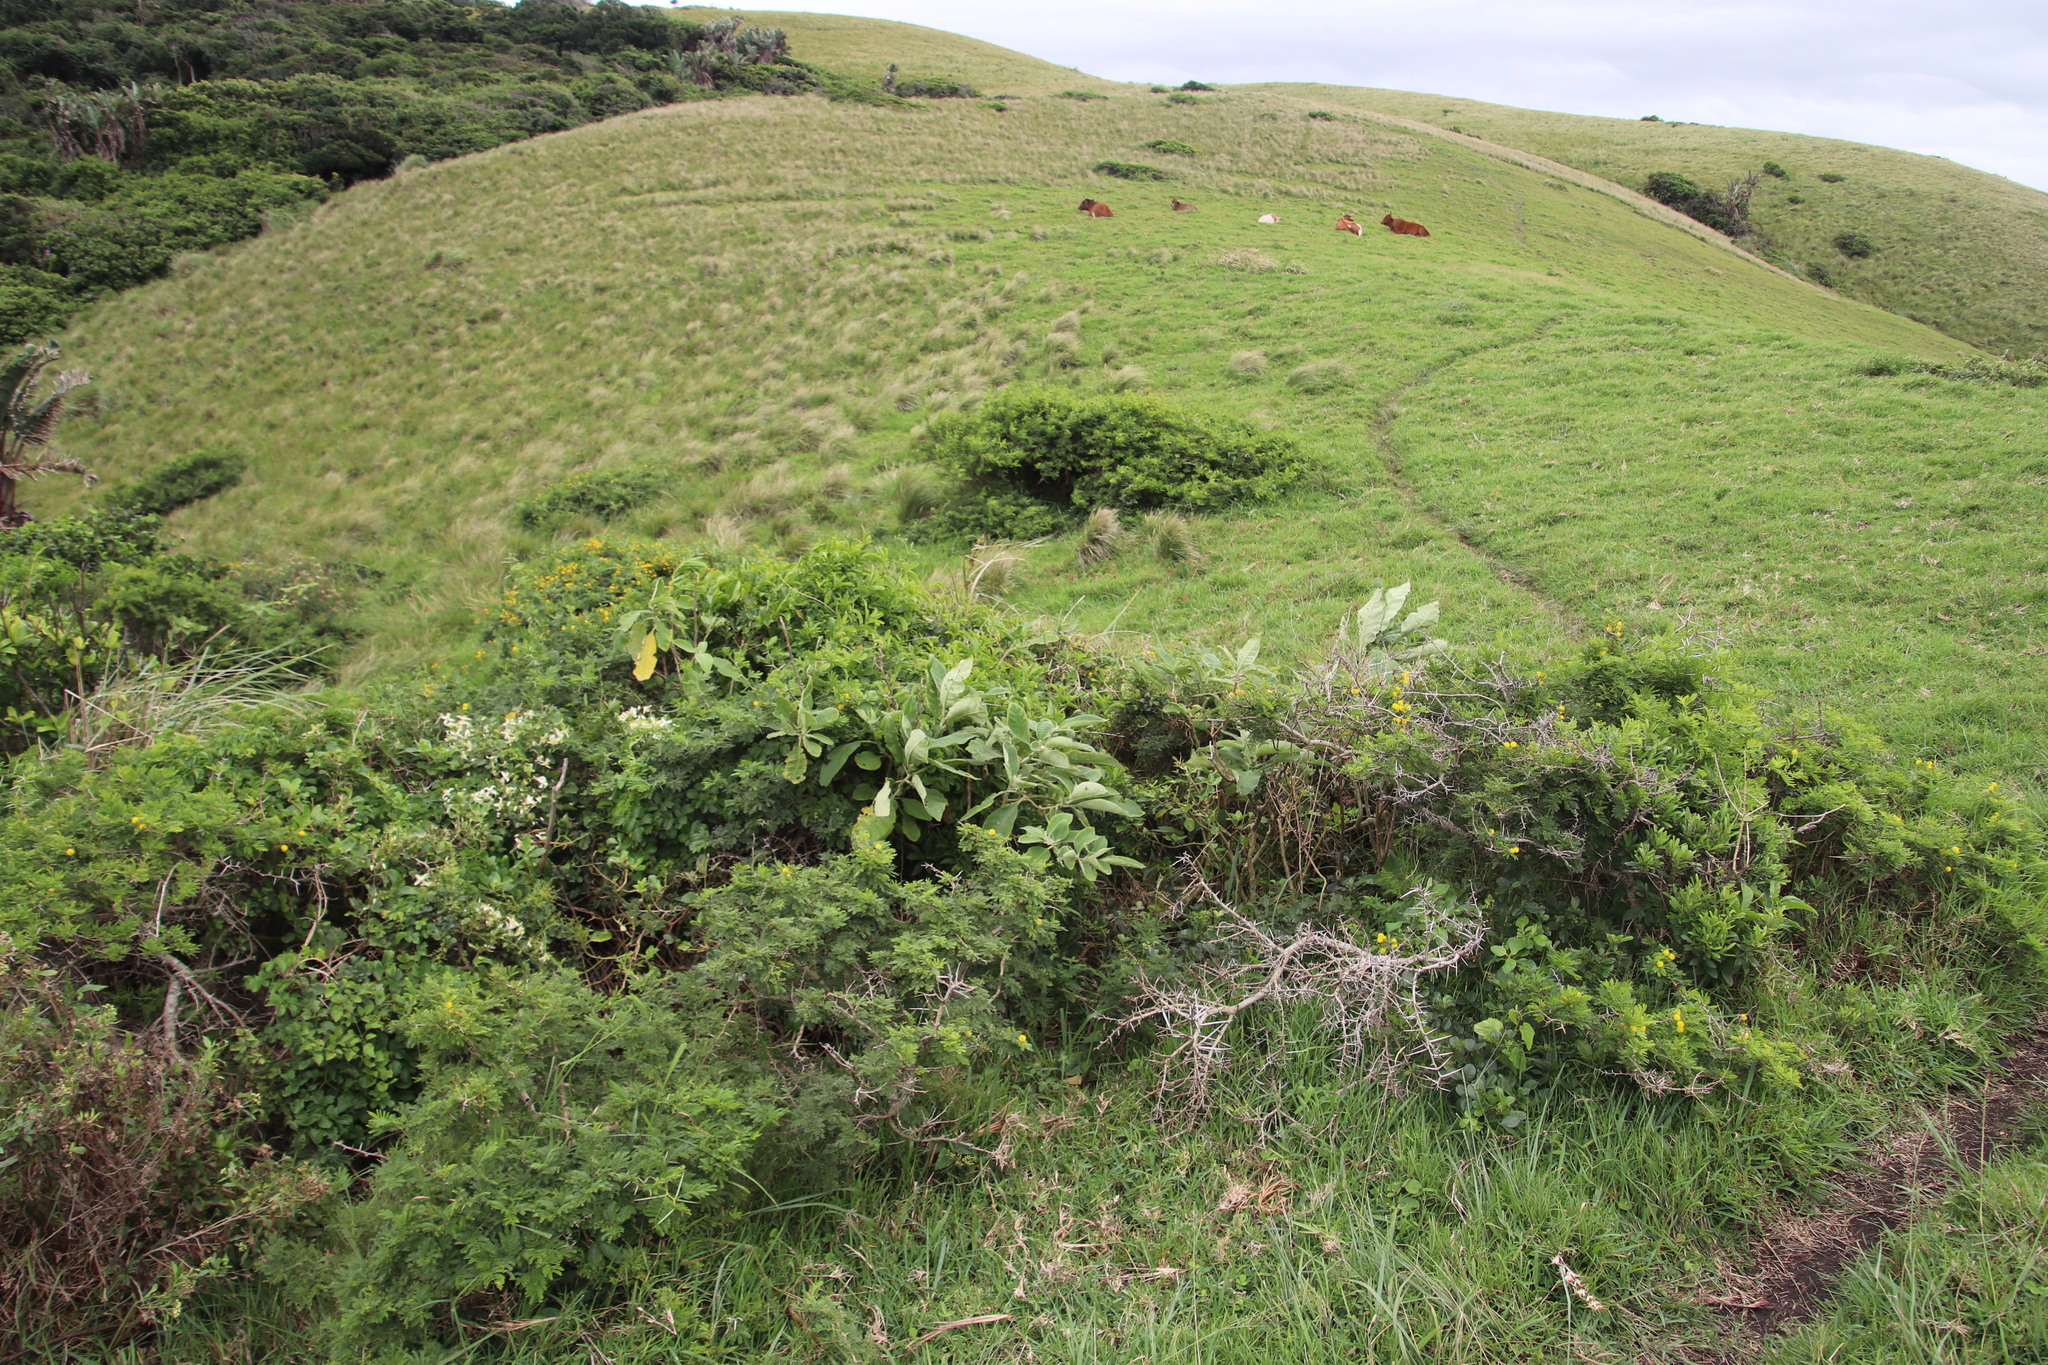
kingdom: Plantae
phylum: Tracheophyta
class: Magnoliopsida
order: Solanales
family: Solanaceae
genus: Solanum
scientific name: Solanum mauritianum
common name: Earleaf nightshade
